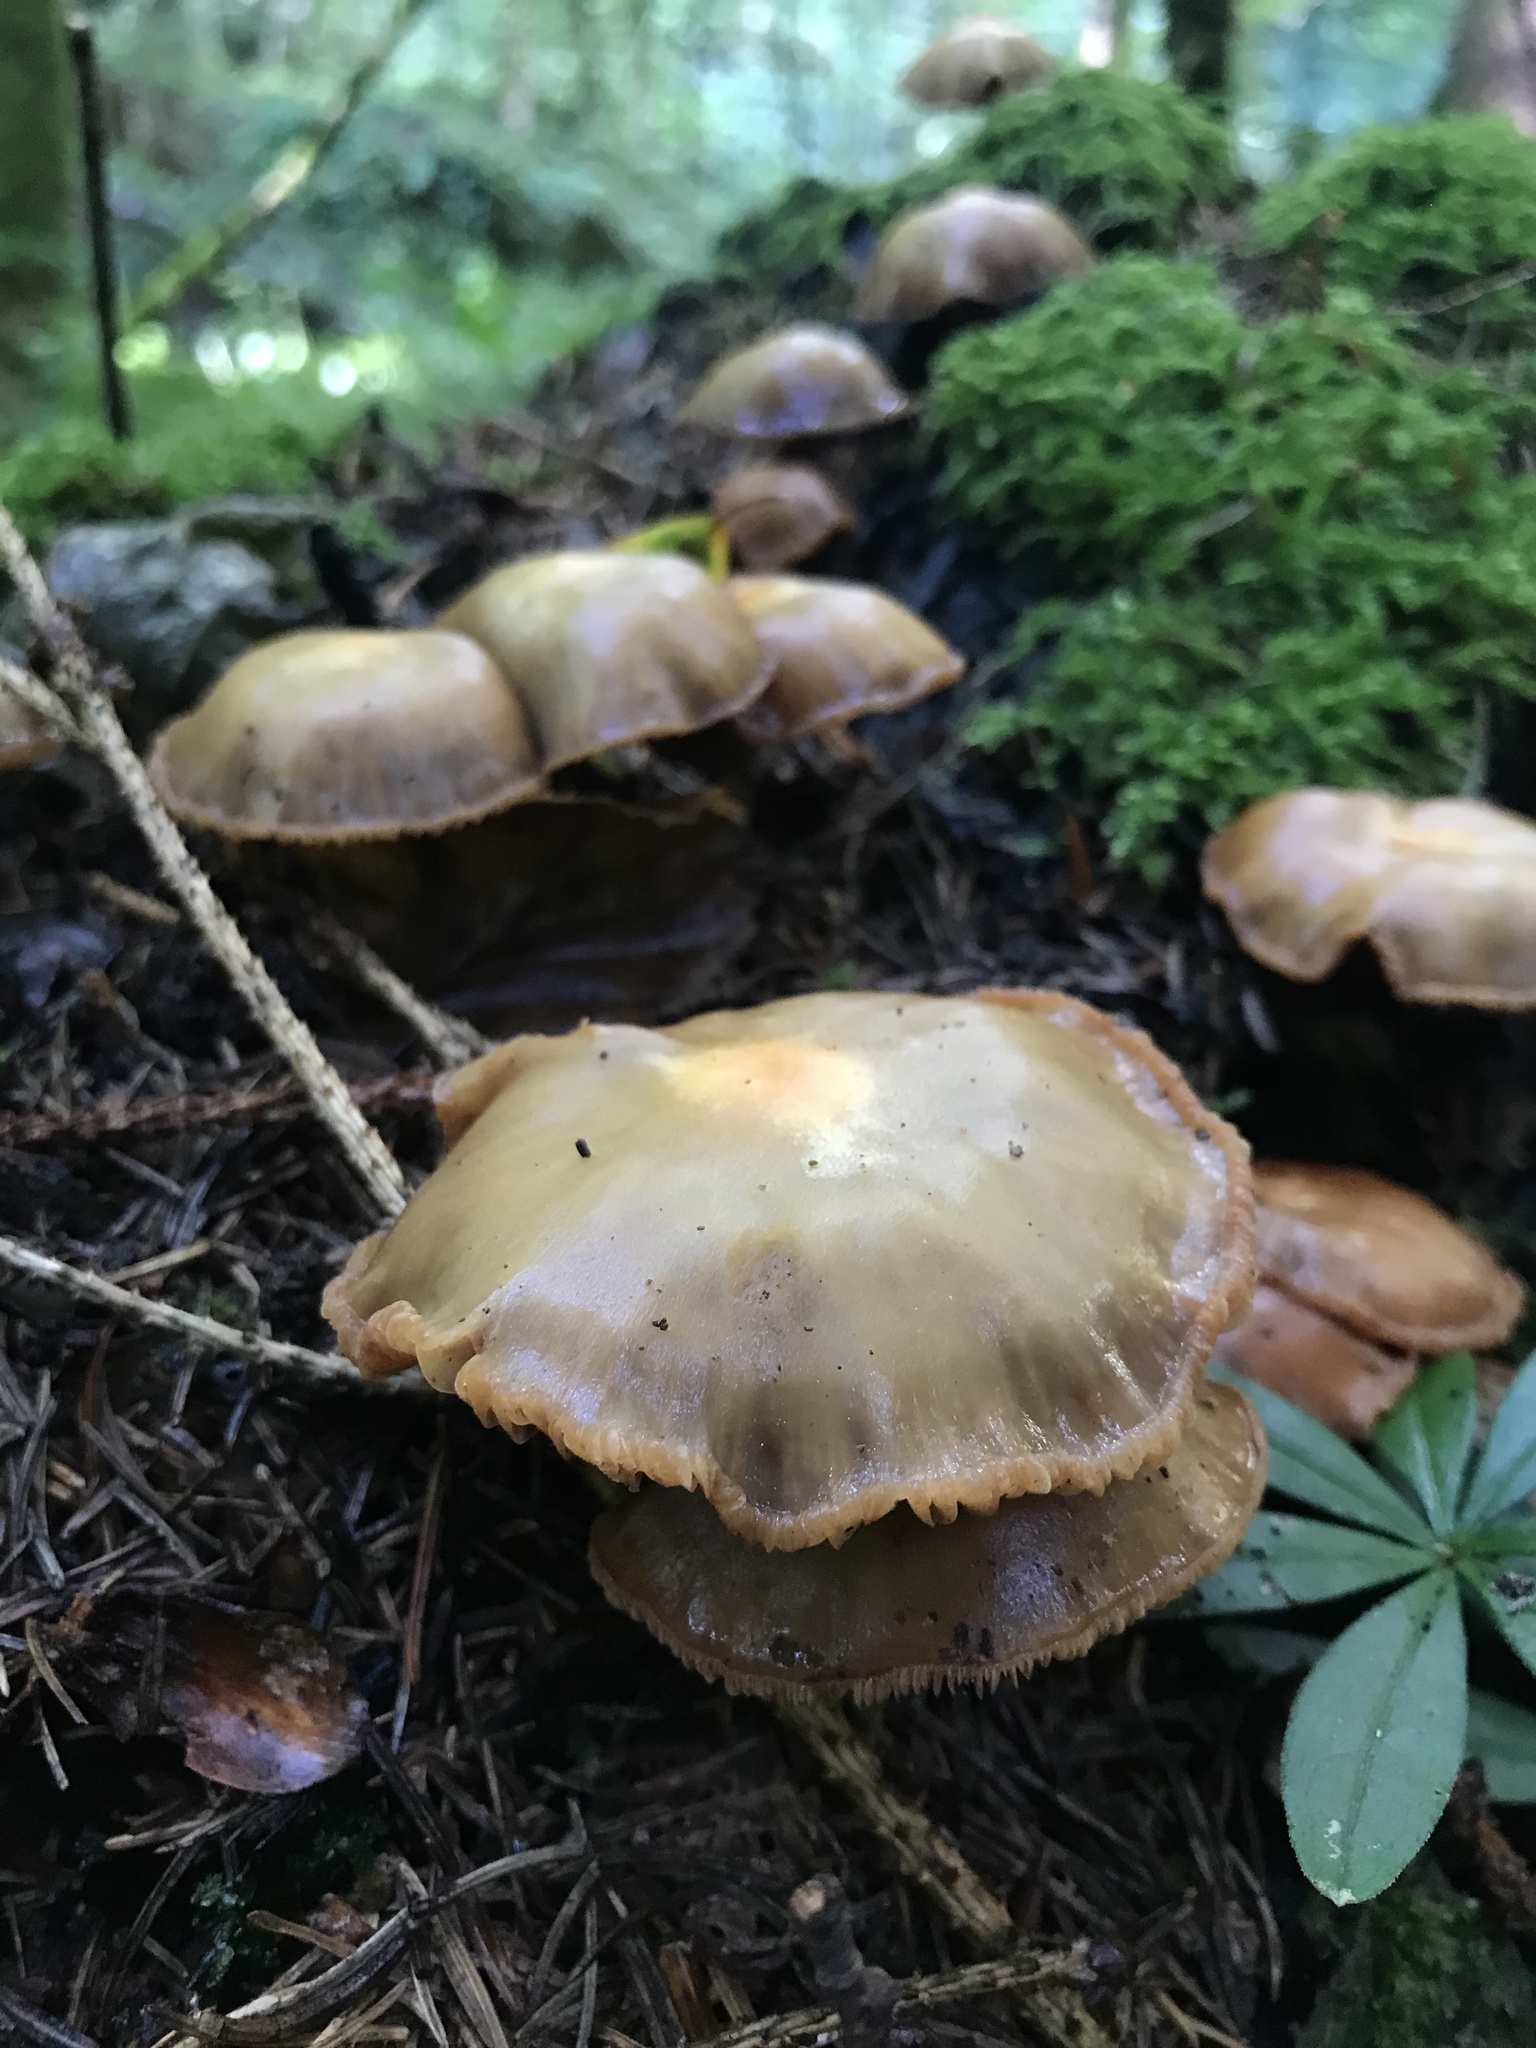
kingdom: Fungi
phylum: Basidiomycota
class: Agaricomycetes
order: Agaricales
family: Strophariaceae
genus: Kuehneromyces
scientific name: Kuehneromyces mutabilis
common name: Sheathed woodtuft
